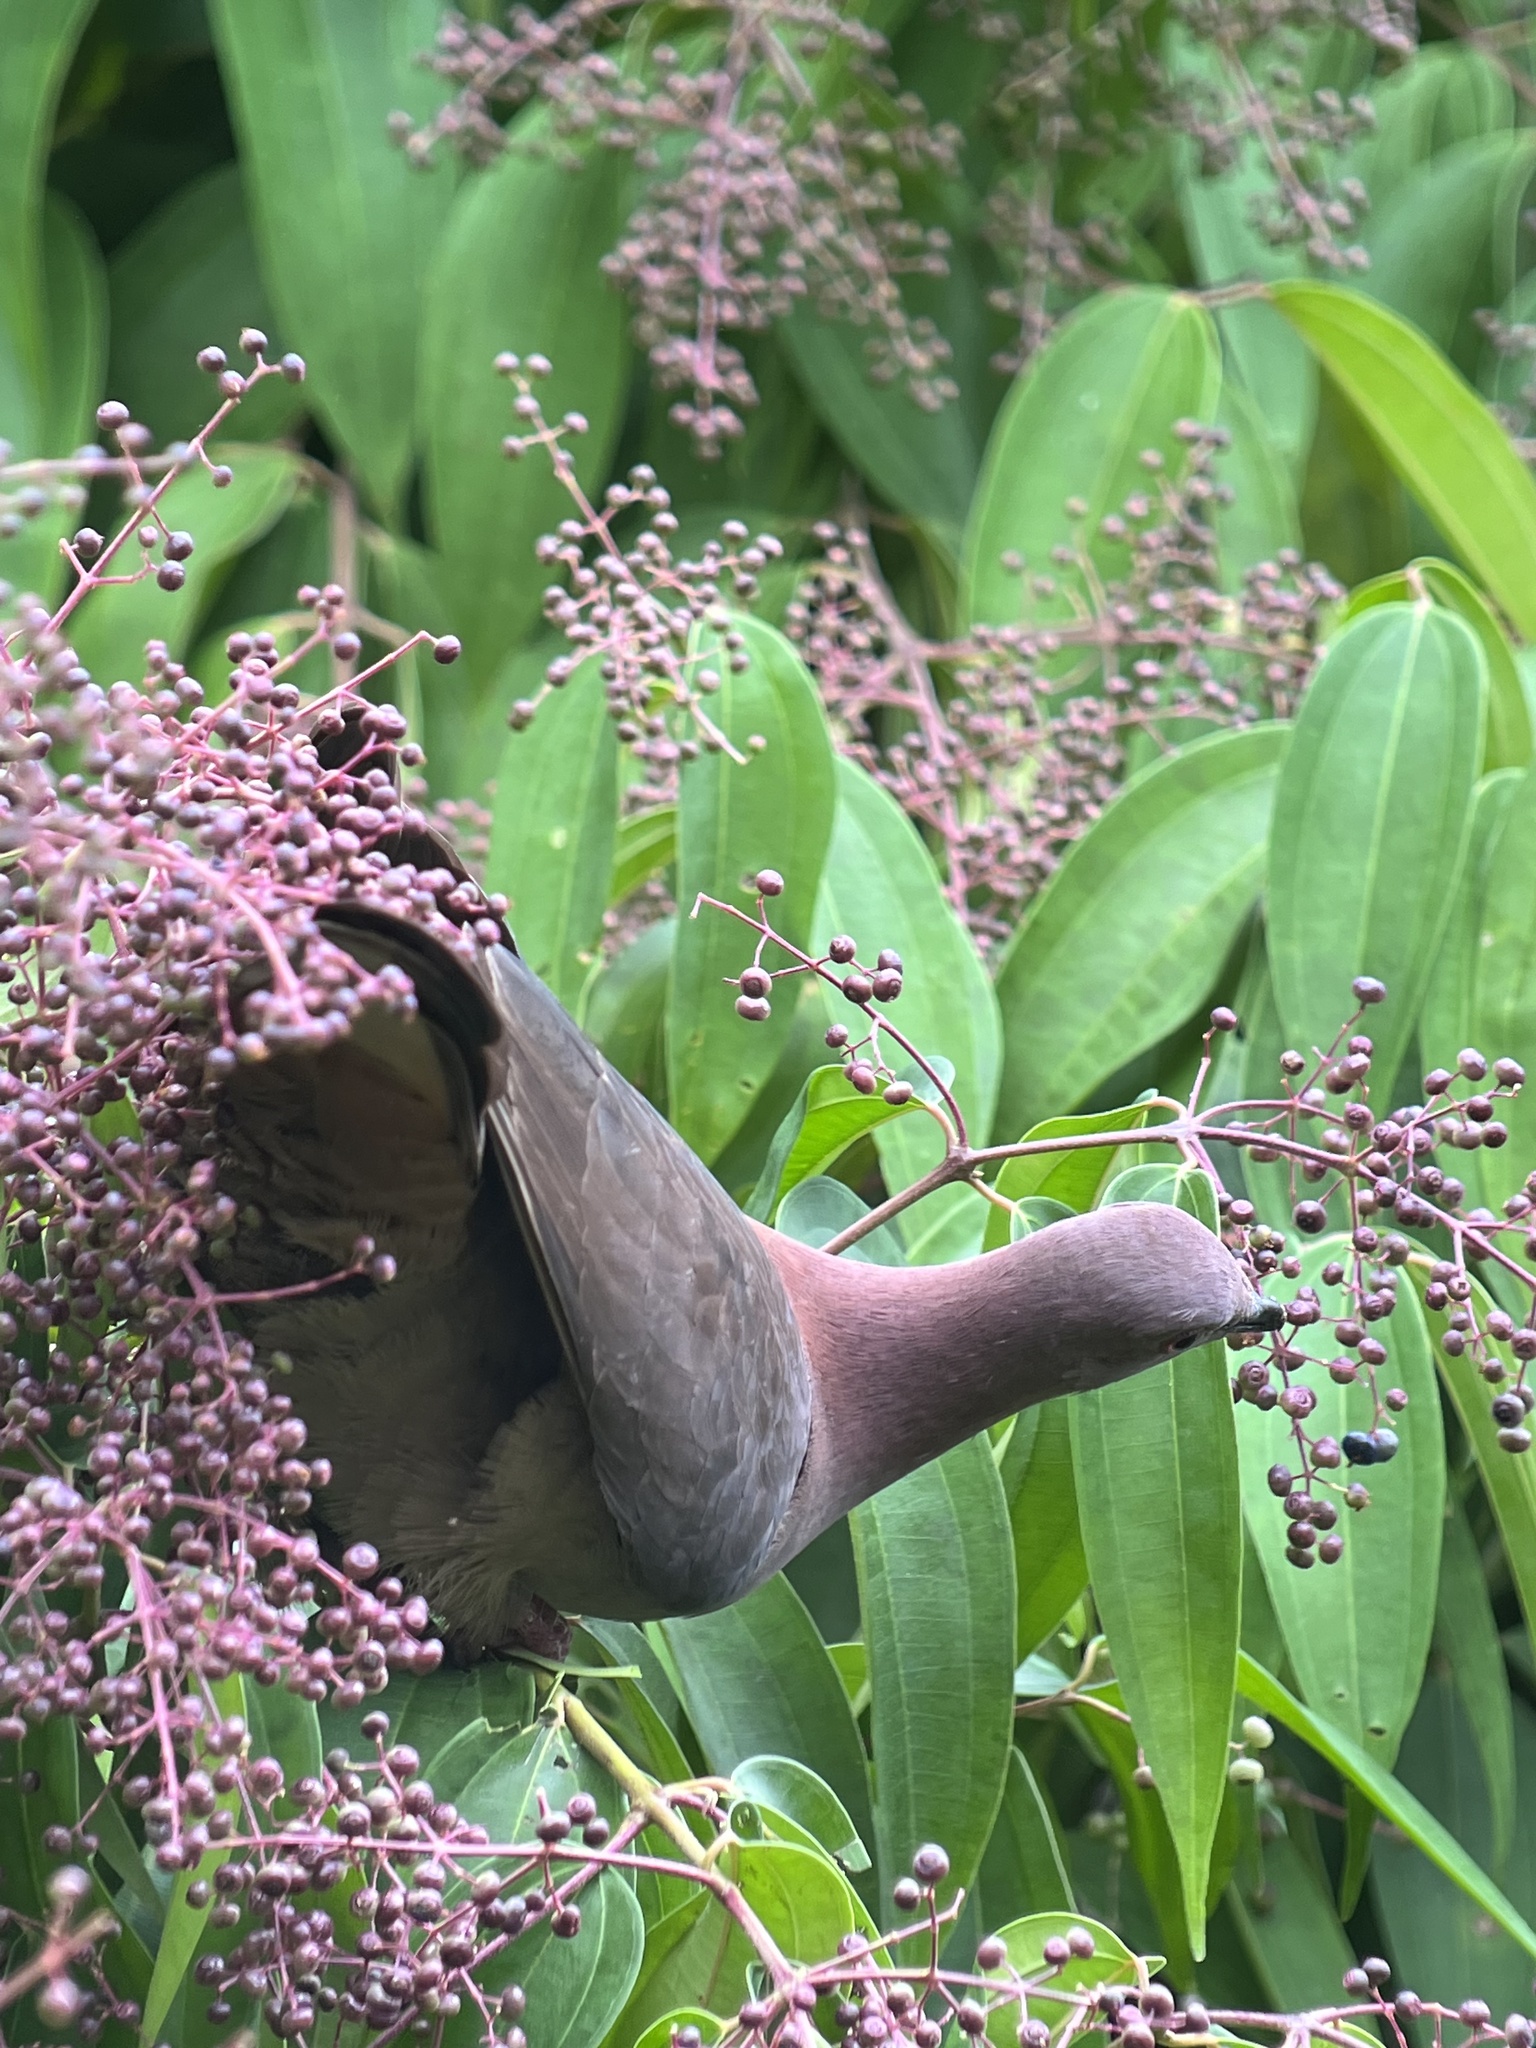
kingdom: Animalia
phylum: Chordata
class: Aves
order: Columbiformes
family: Columbidae
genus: Patagioenas
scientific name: Patagioenas nigrirostris
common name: Short-billed pigeon
